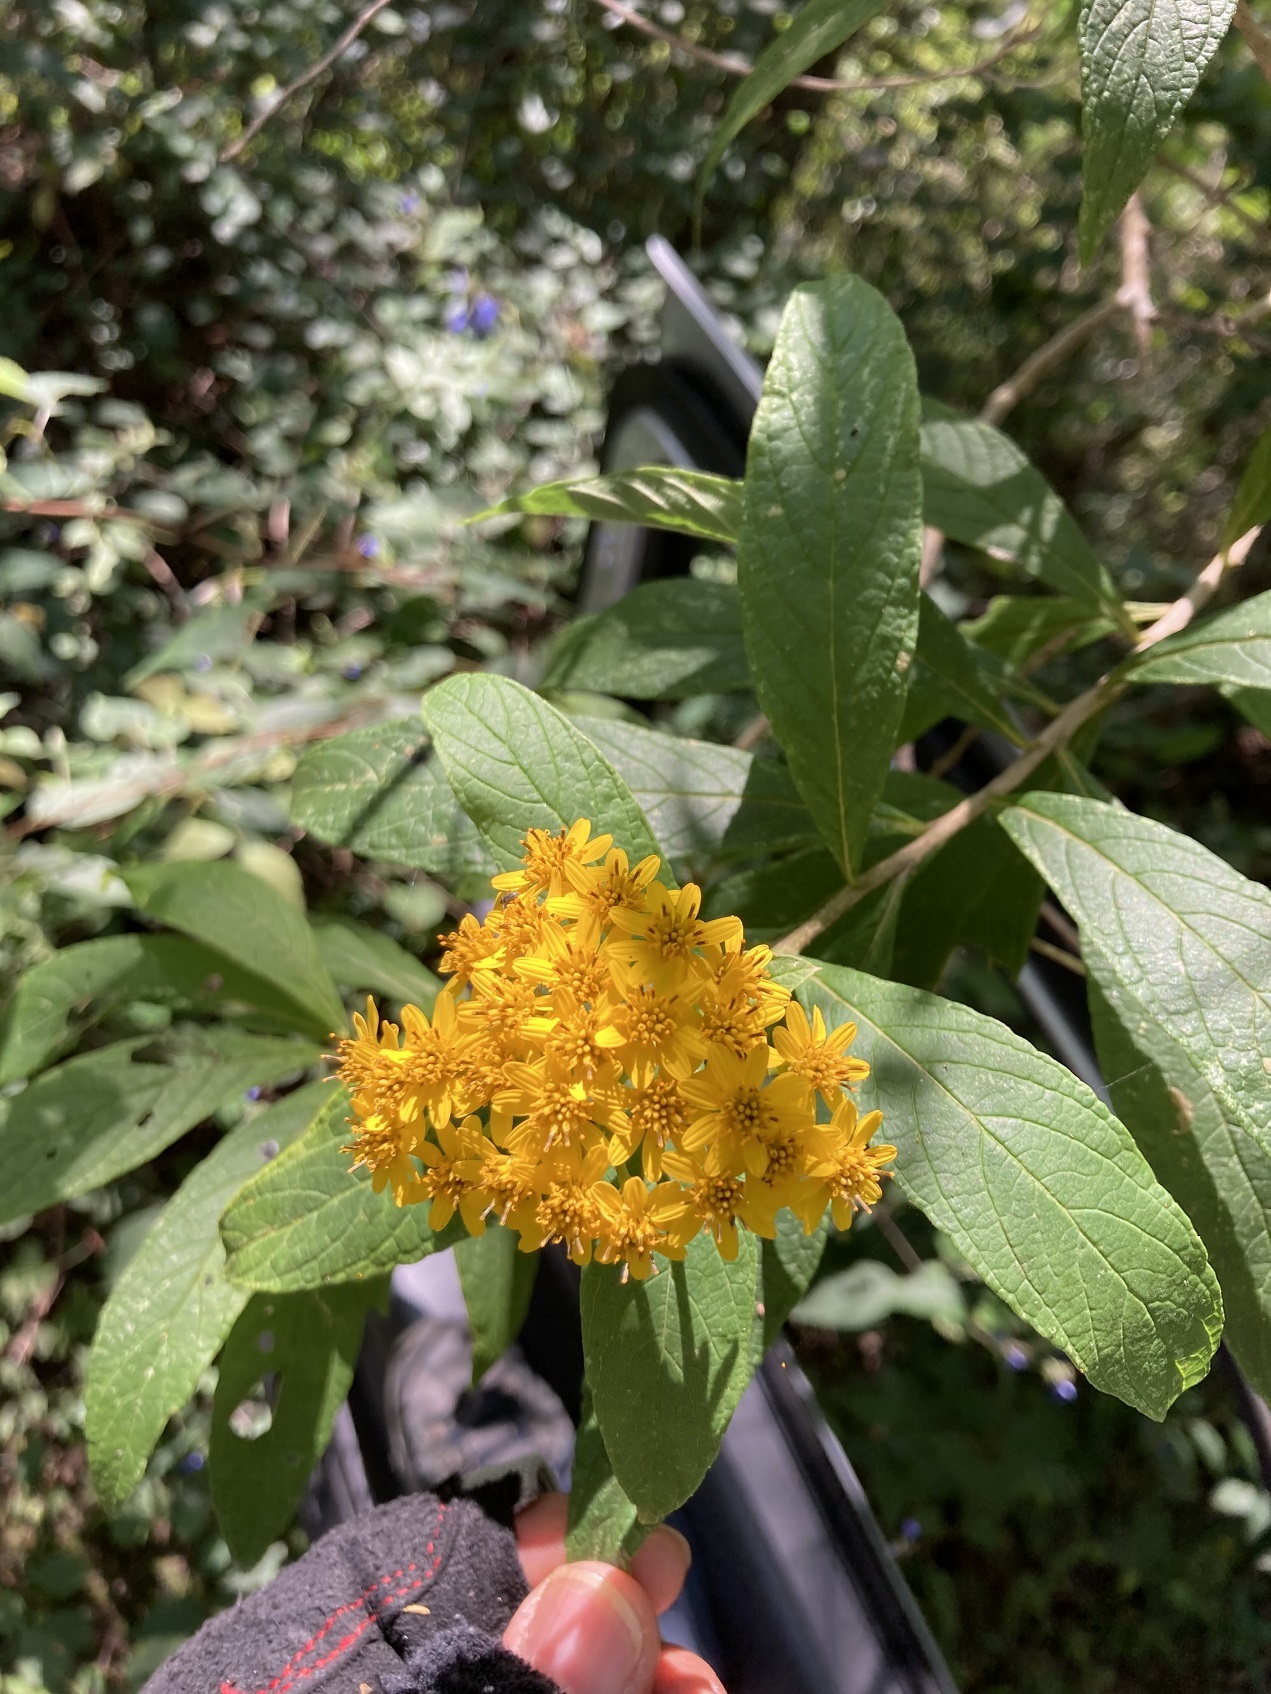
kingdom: Plantae
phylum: Tracheophyta
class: Magnoliopsida
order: Asterales
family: Asteraceae
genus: Verbesina
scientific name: Verbesina hypargyrea
